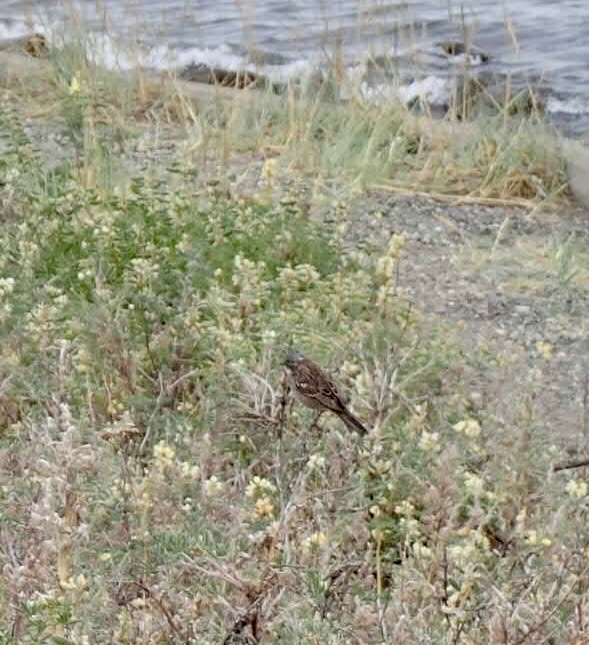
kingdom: Animalia
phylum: Chordata
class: Aves
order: Passeriformes
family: Passerellidae
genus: Zonotrichia
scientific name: Zonotrichia capensis
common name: Rufous-collared sparrow
